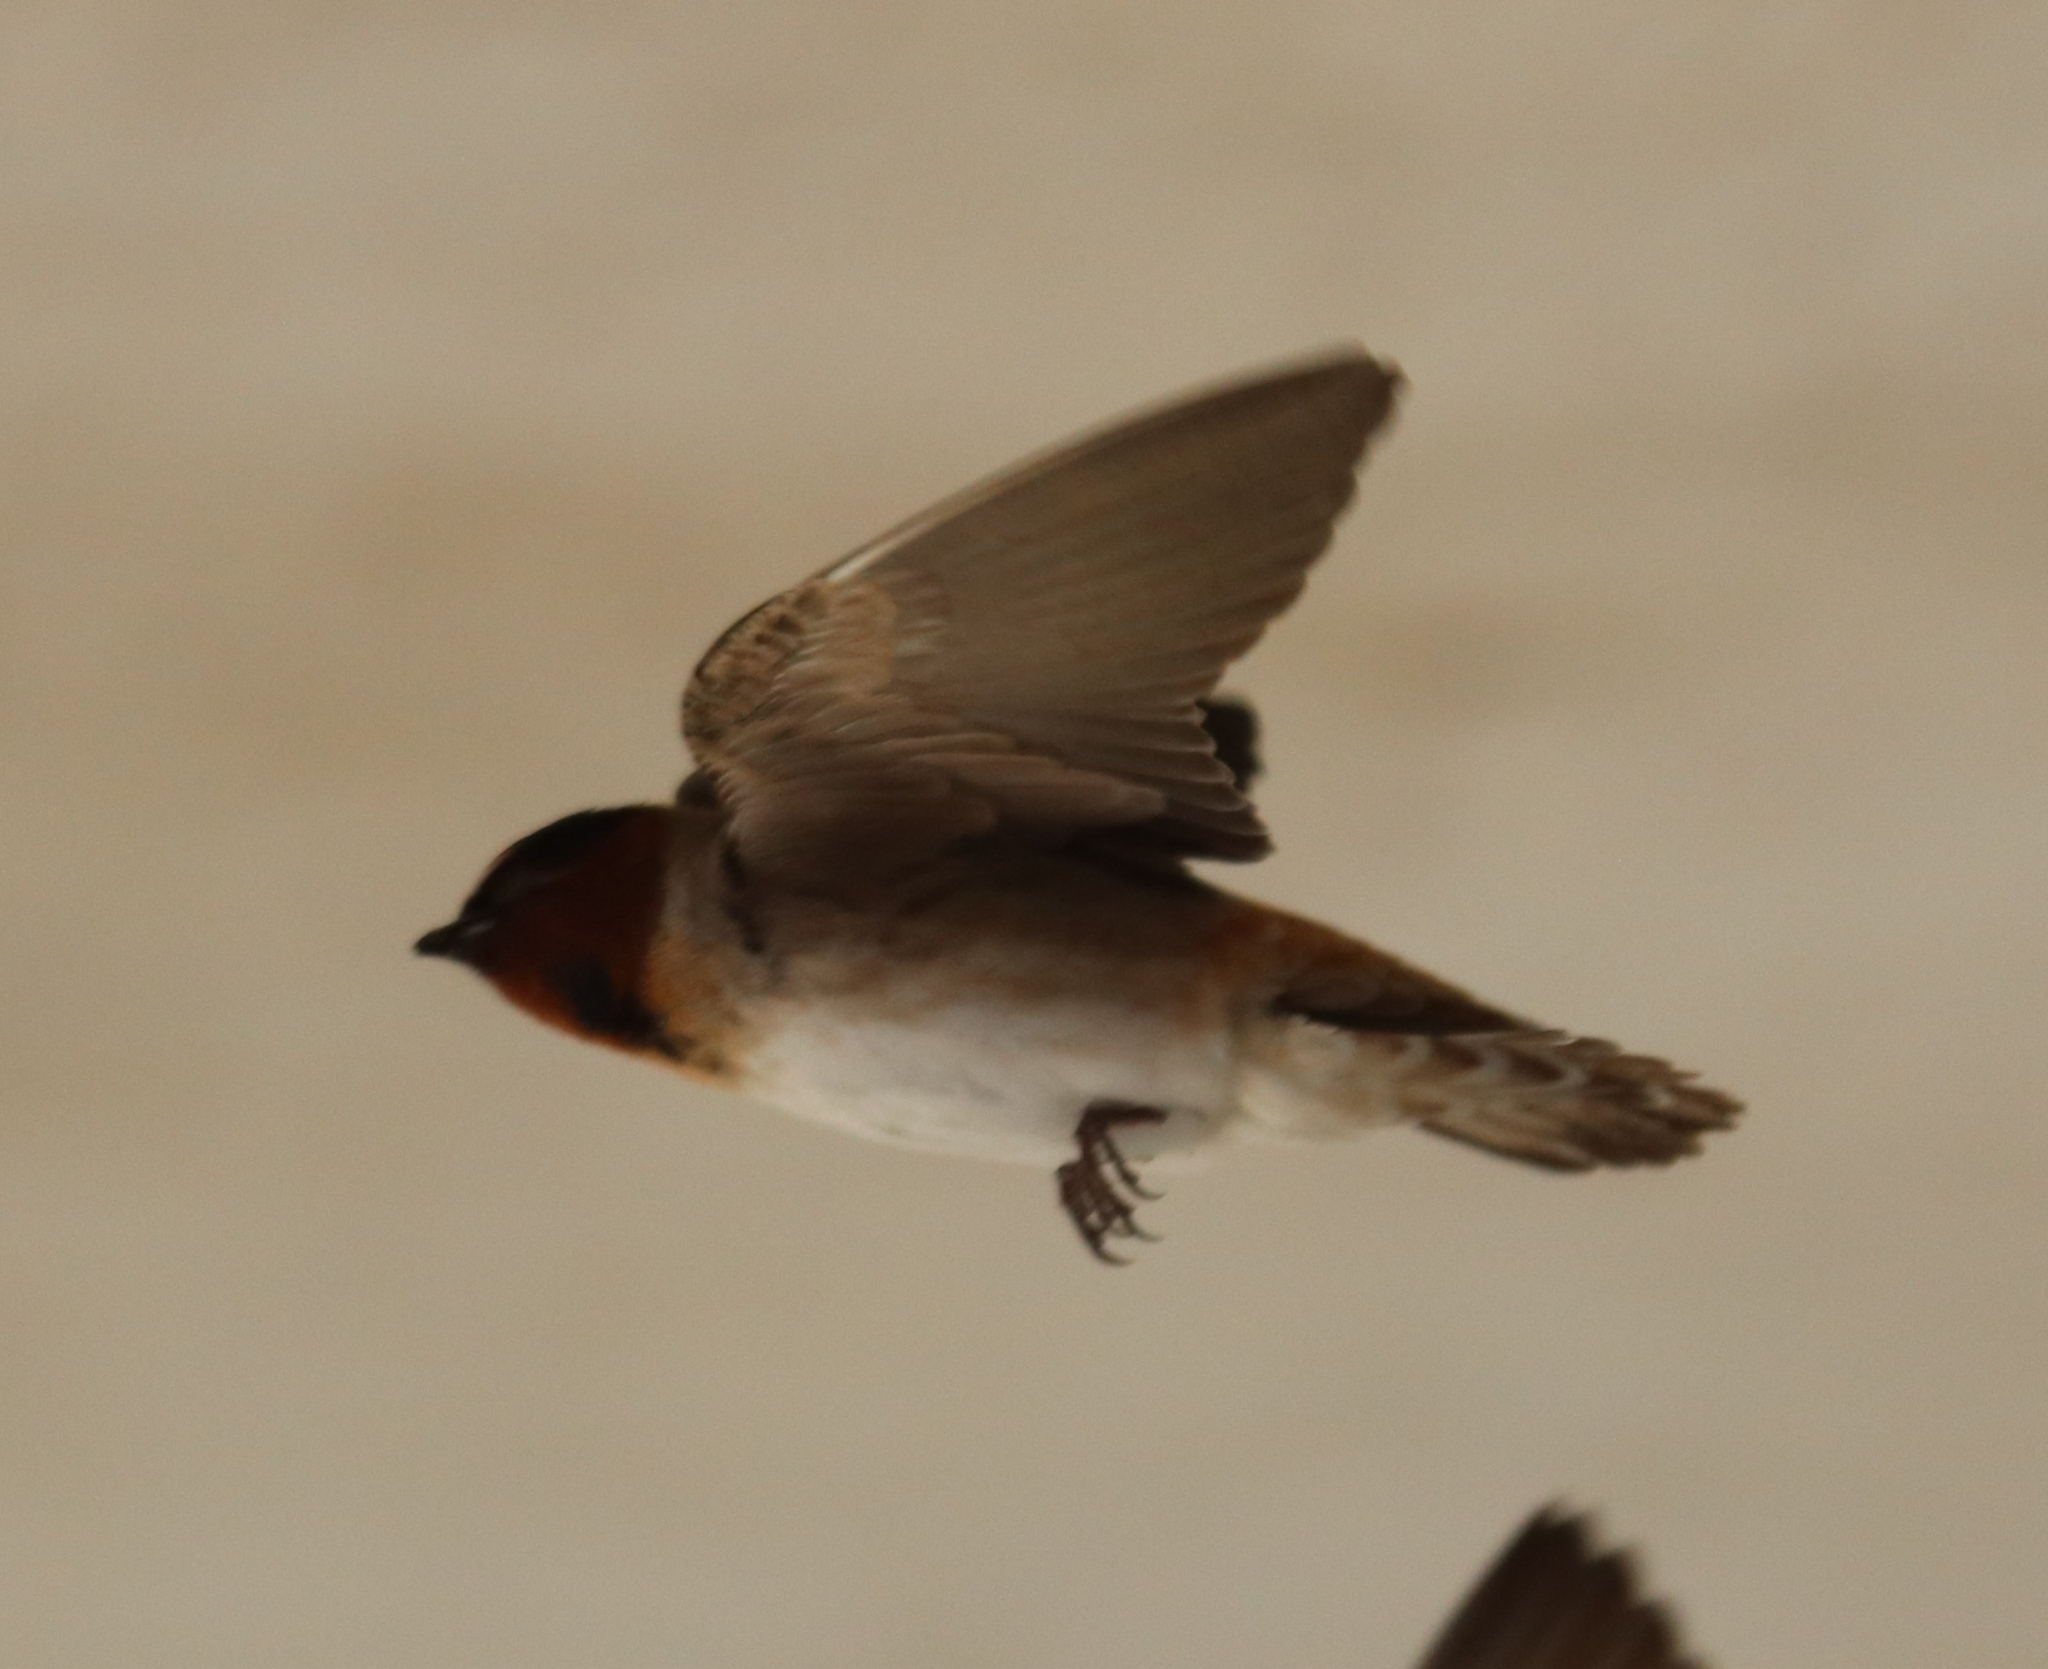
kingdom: Animalia
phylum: Chordata
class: Aves
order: Passeriformes
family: Hirundinidae
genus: Petrochelidon
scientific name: Petrochelidon pyrrhonota
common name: American cliff swallow
